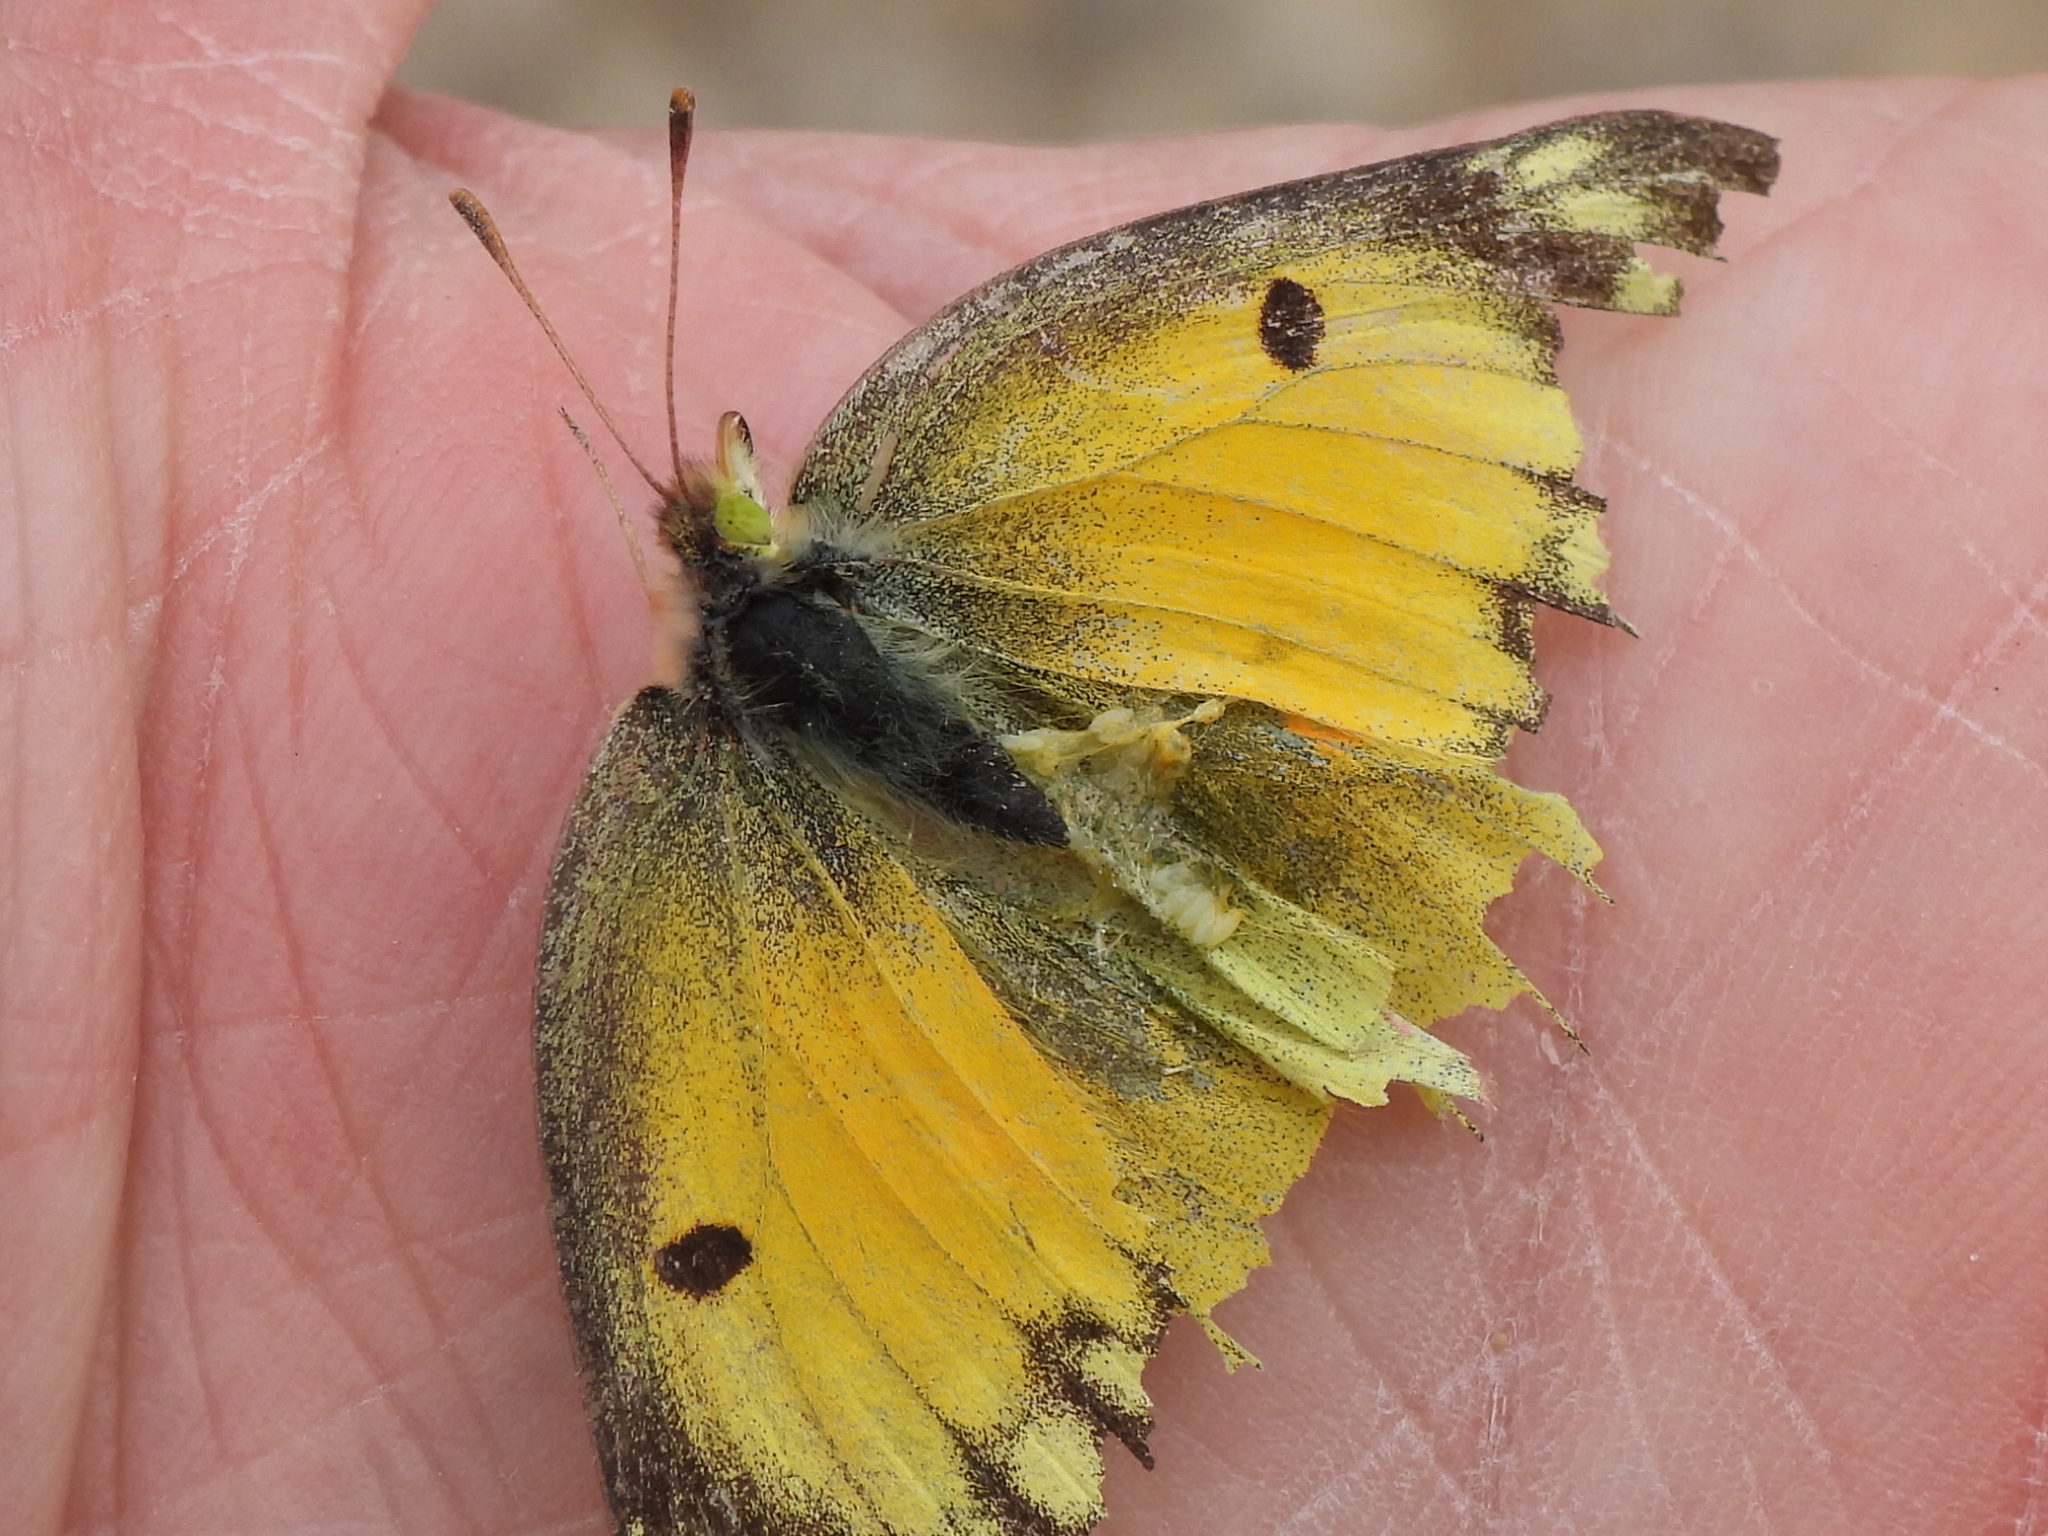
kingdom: Animalia
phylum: Arthropoda
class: Insecta
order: Lepidoptera
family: Pieridae
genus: Colias
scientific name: Colias eurytheme
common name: Alfalfa butterfly
